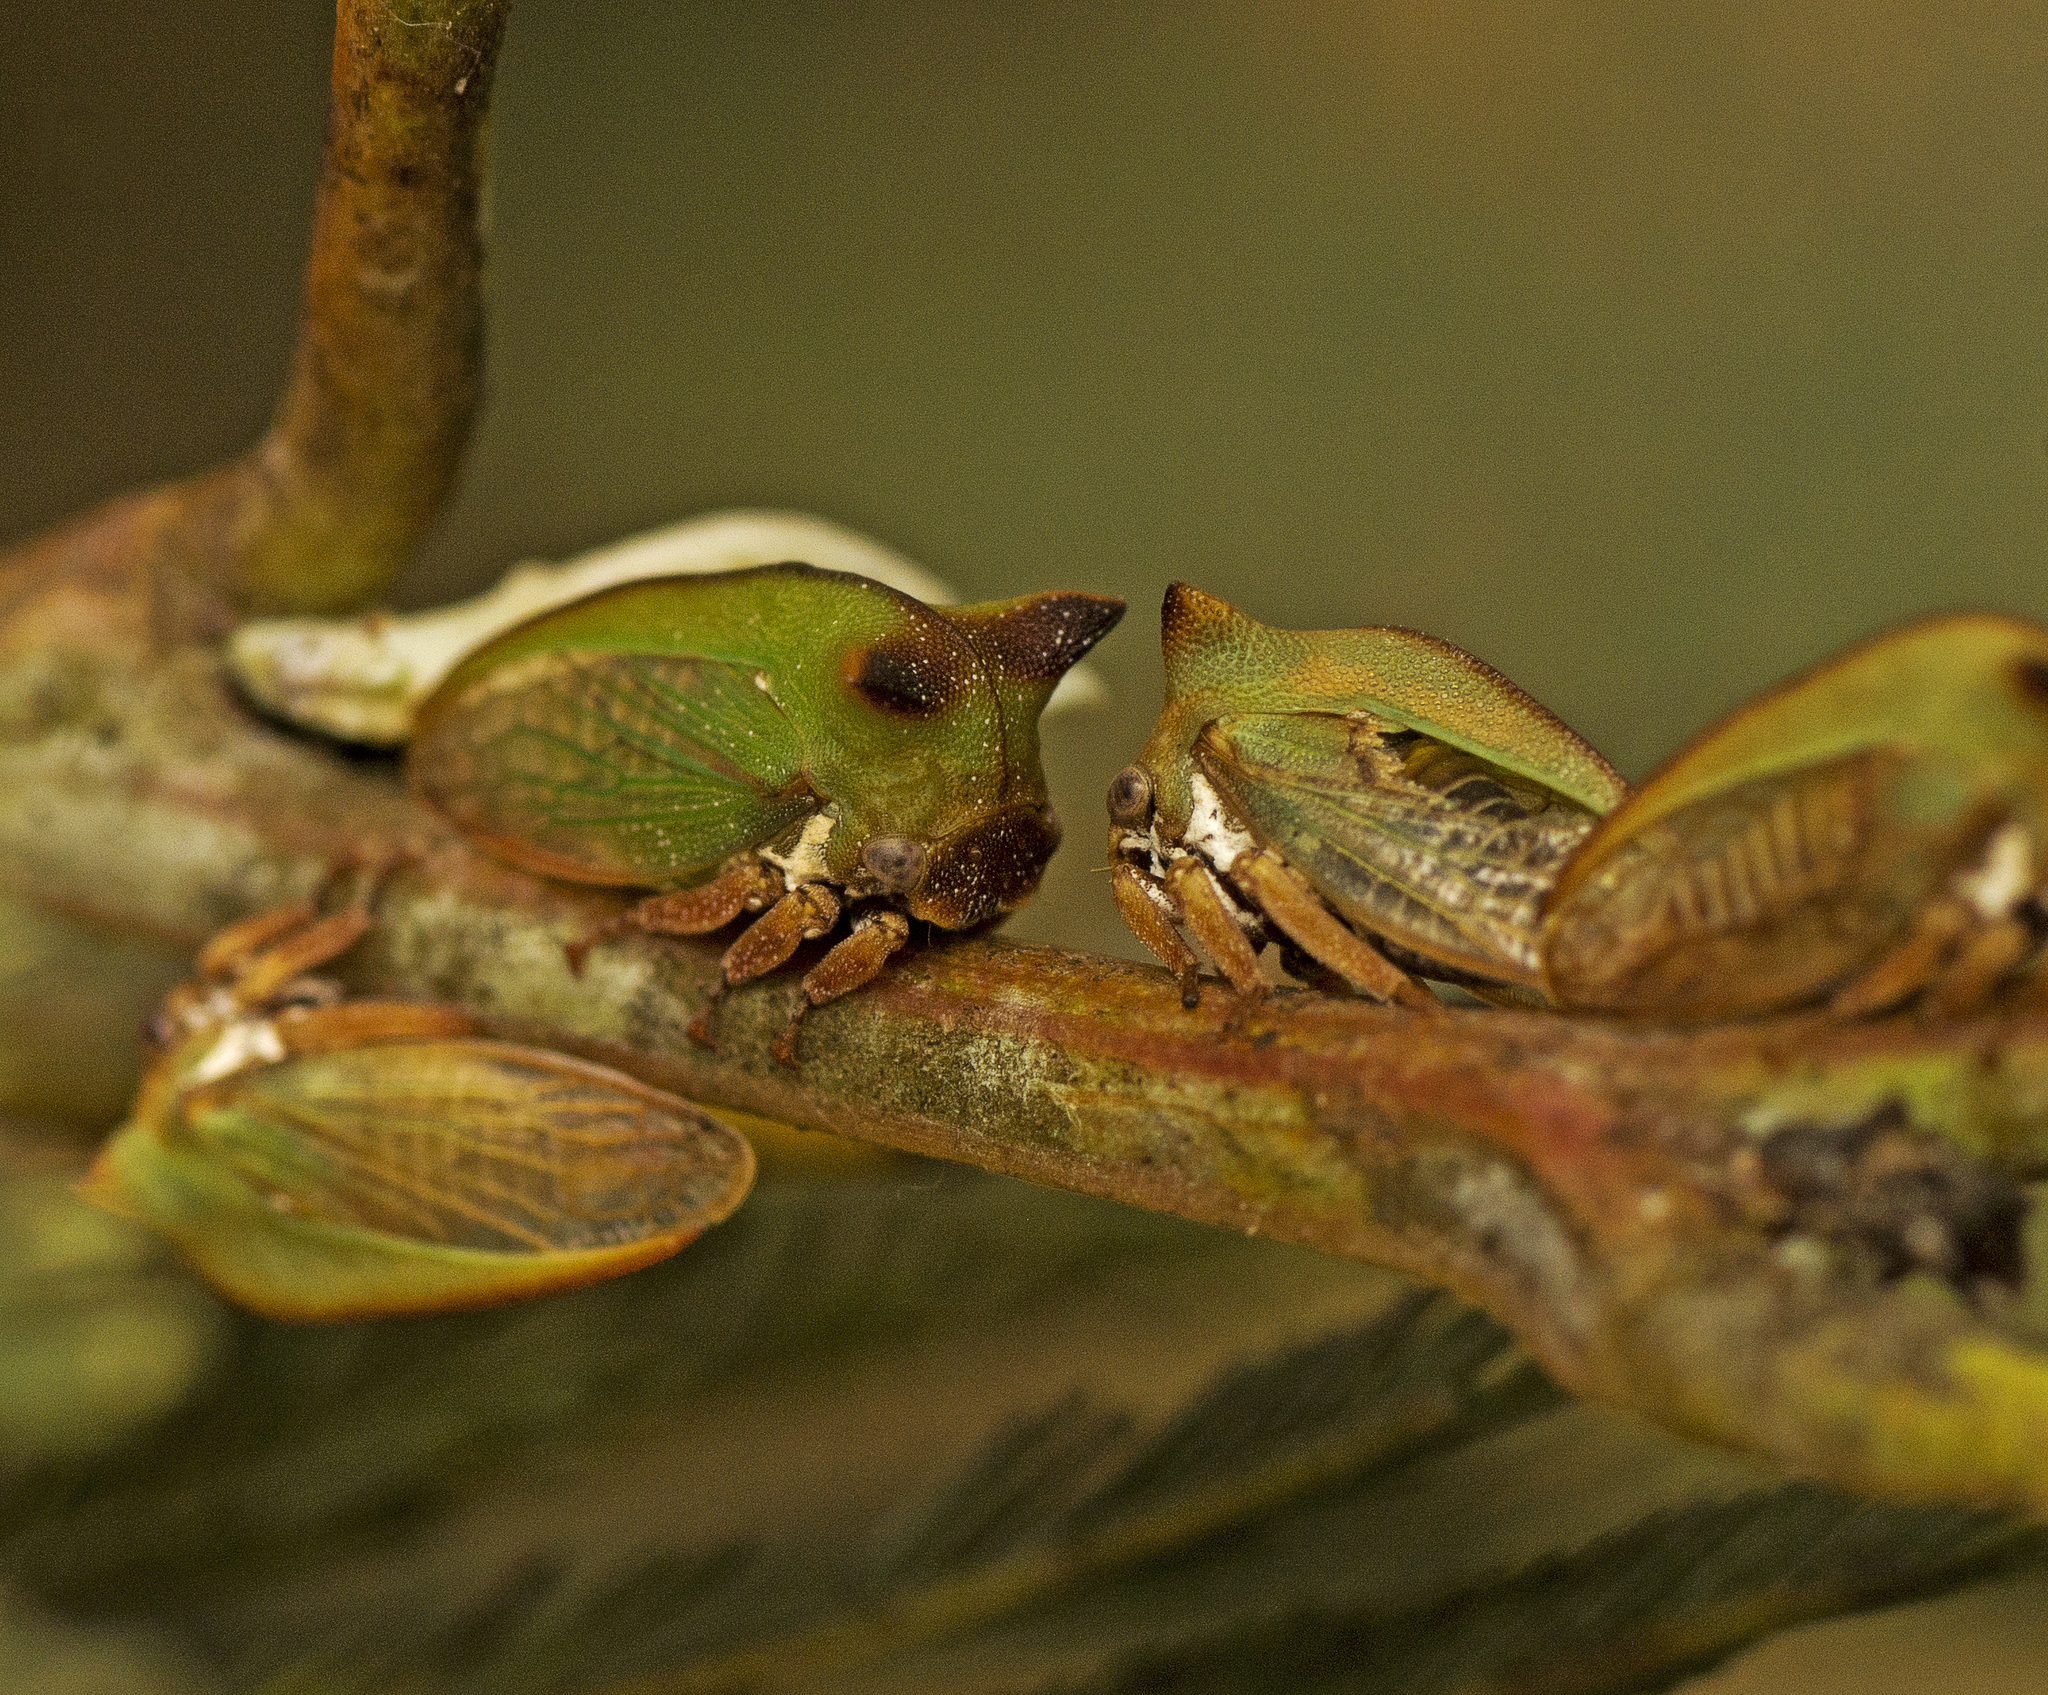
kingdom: Animalia
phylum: Arthropoda
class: Insecta
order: Hemiptera
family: Membracidae
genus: Sextius
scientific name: Sextius virescens
